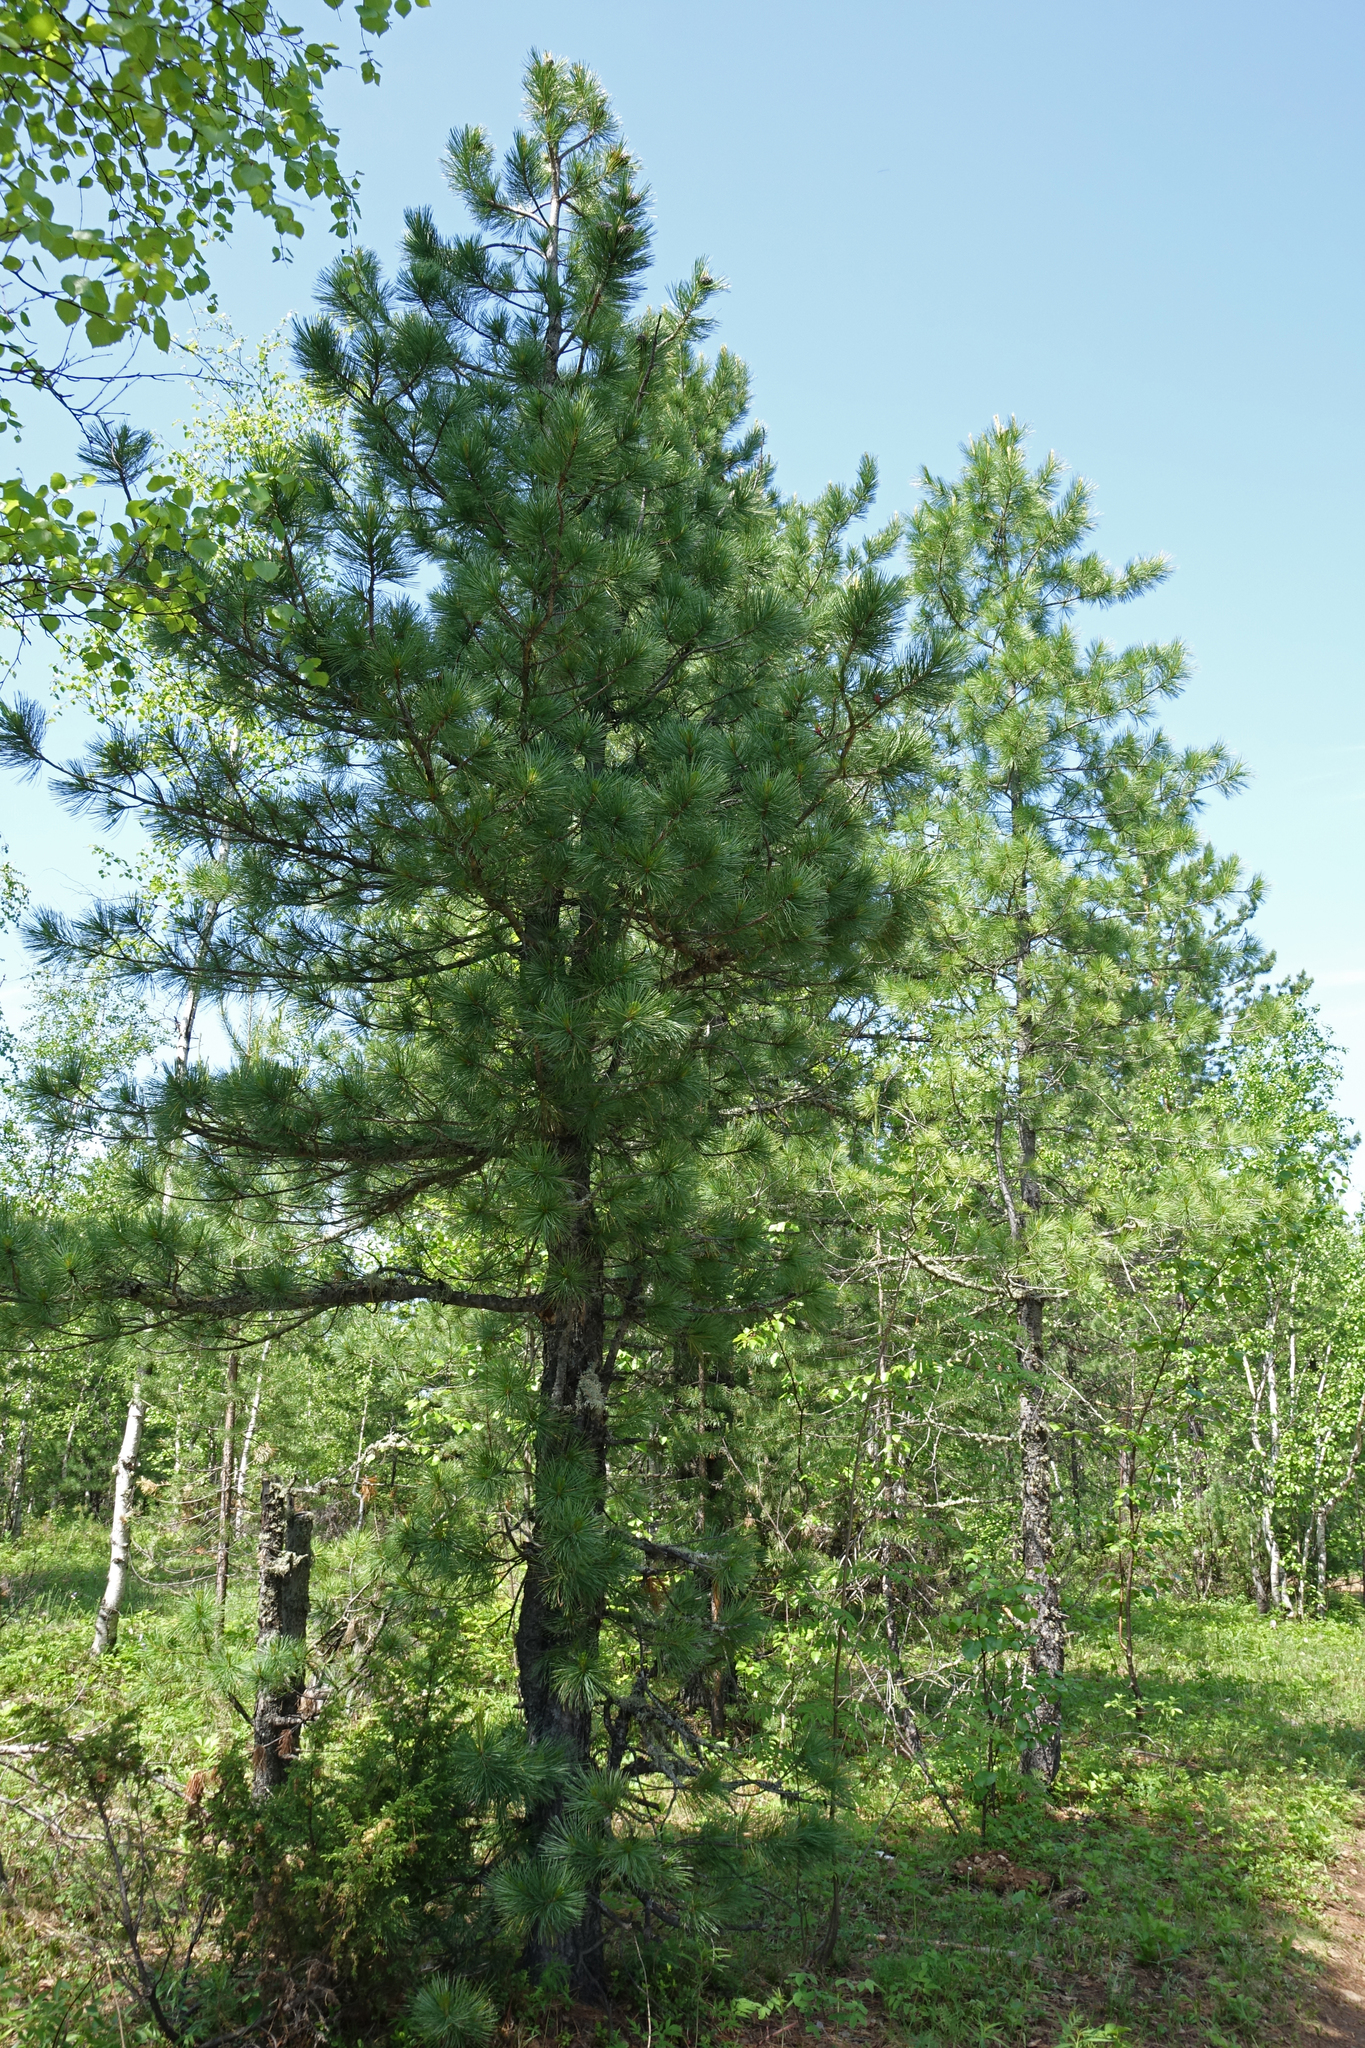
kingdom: Plantae
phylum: Tracheophyta
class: Pinopsida
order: Pinales
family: Pinaceae
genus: Pinus
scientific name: Pinus sibirica
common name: Siberian pine
